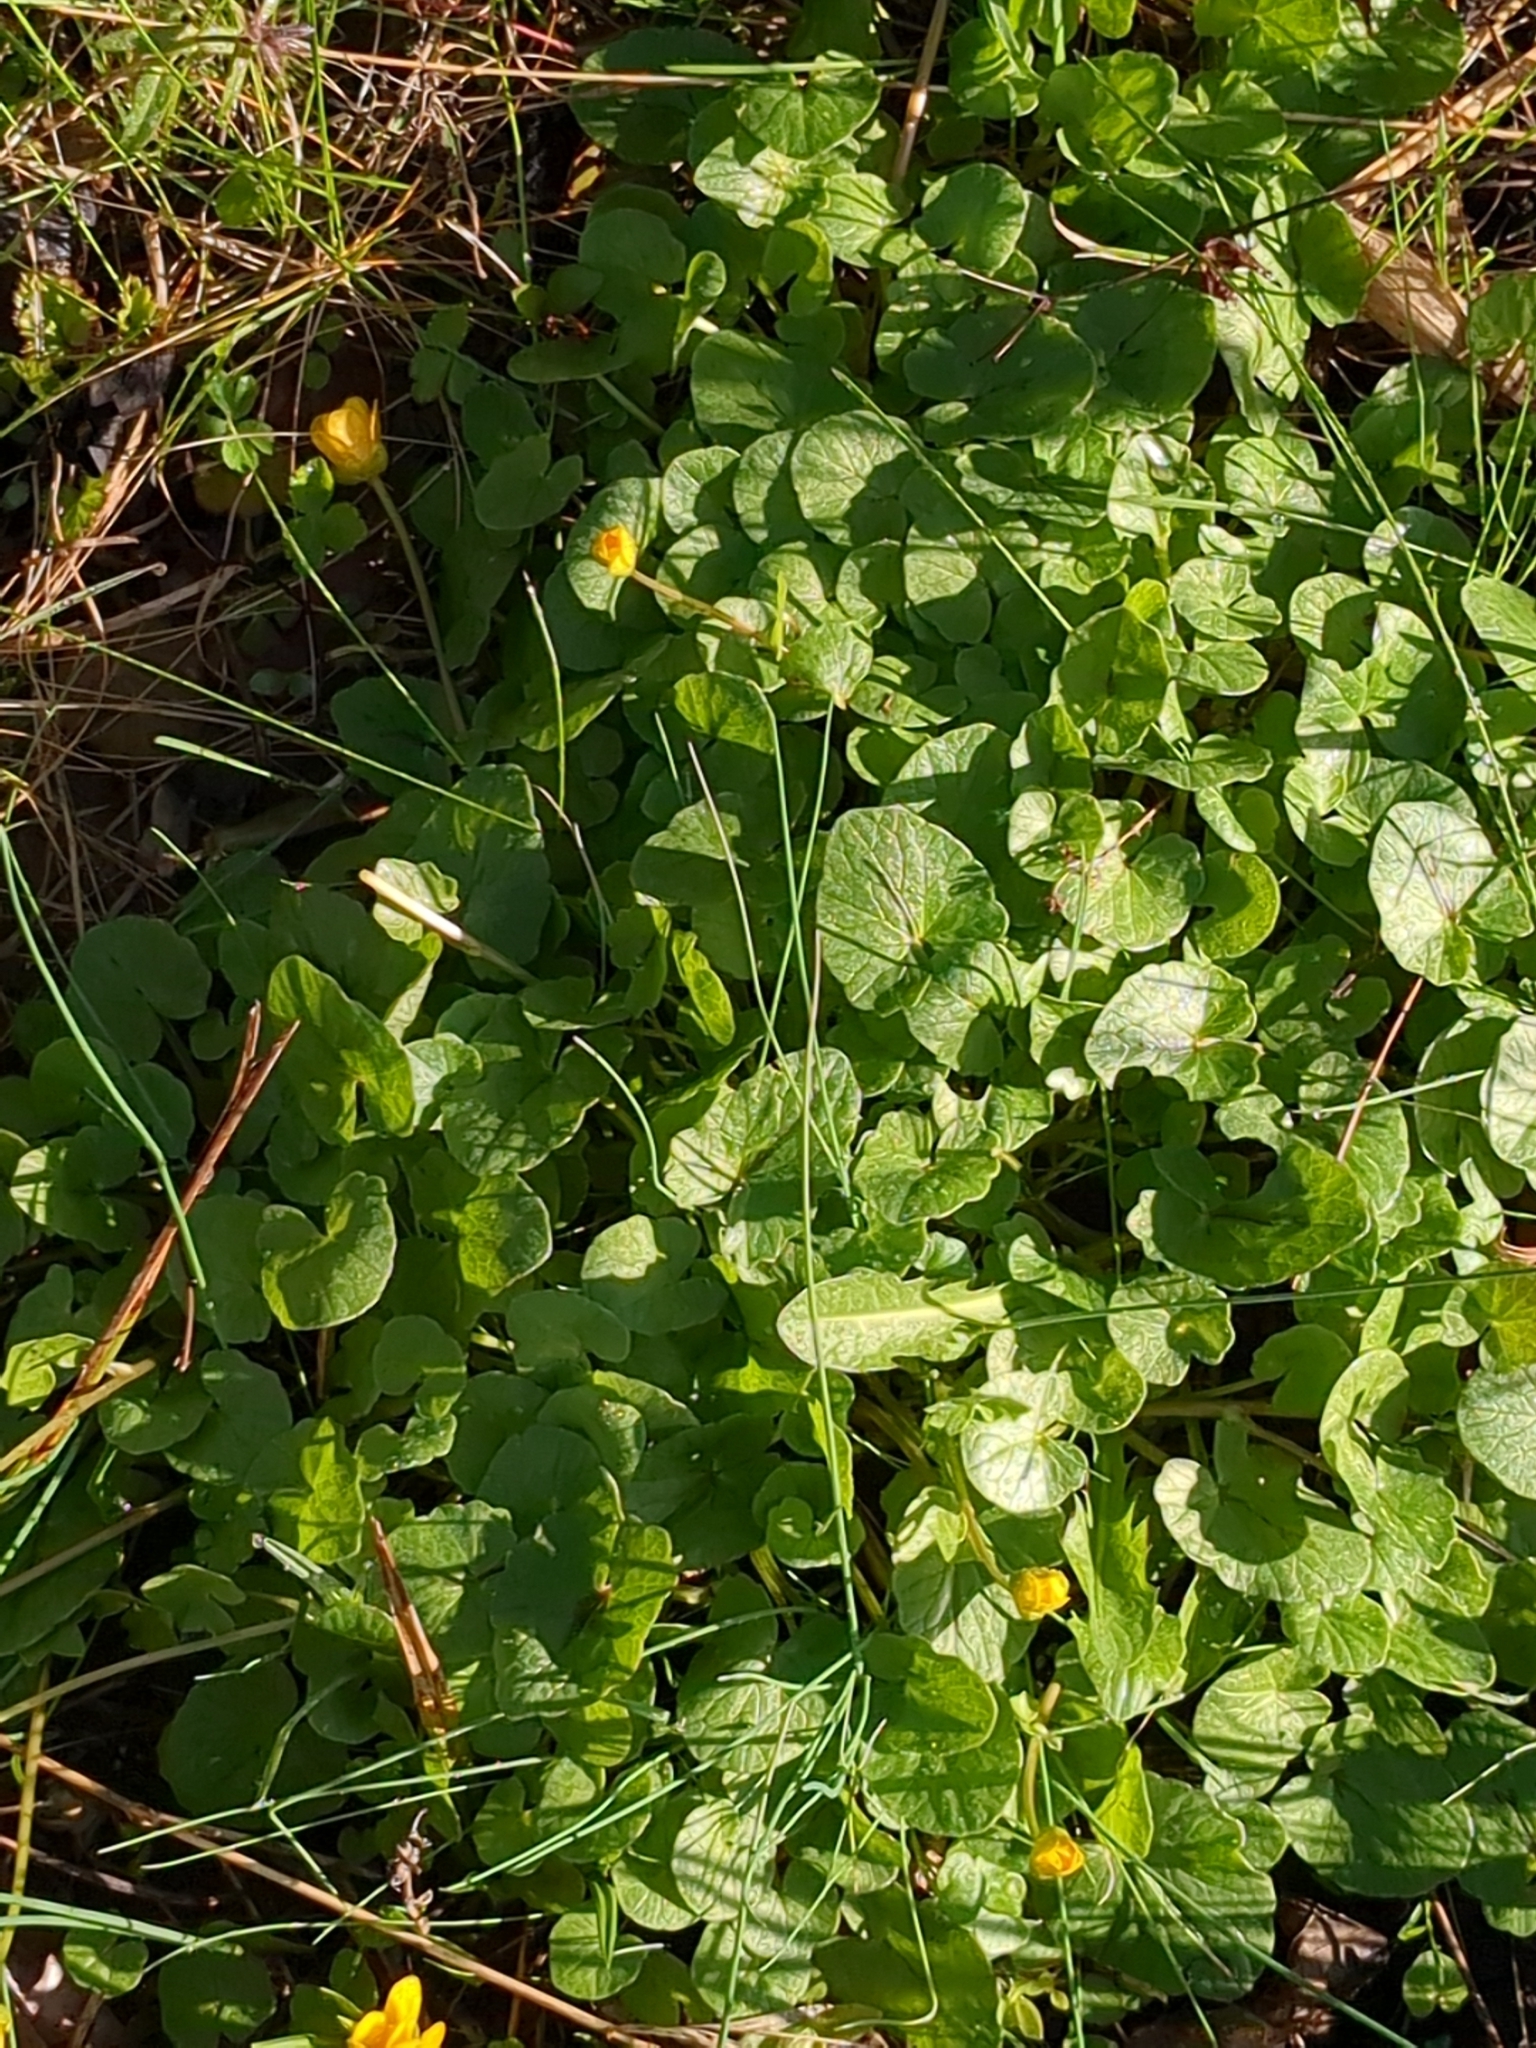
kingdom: Plantae
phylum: Tracheophyta
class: Magnoliopsida
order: Ranunculales
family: Ranunculaceae
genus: Ficaria
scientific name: Ficaria verna
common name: Lesser celandine
